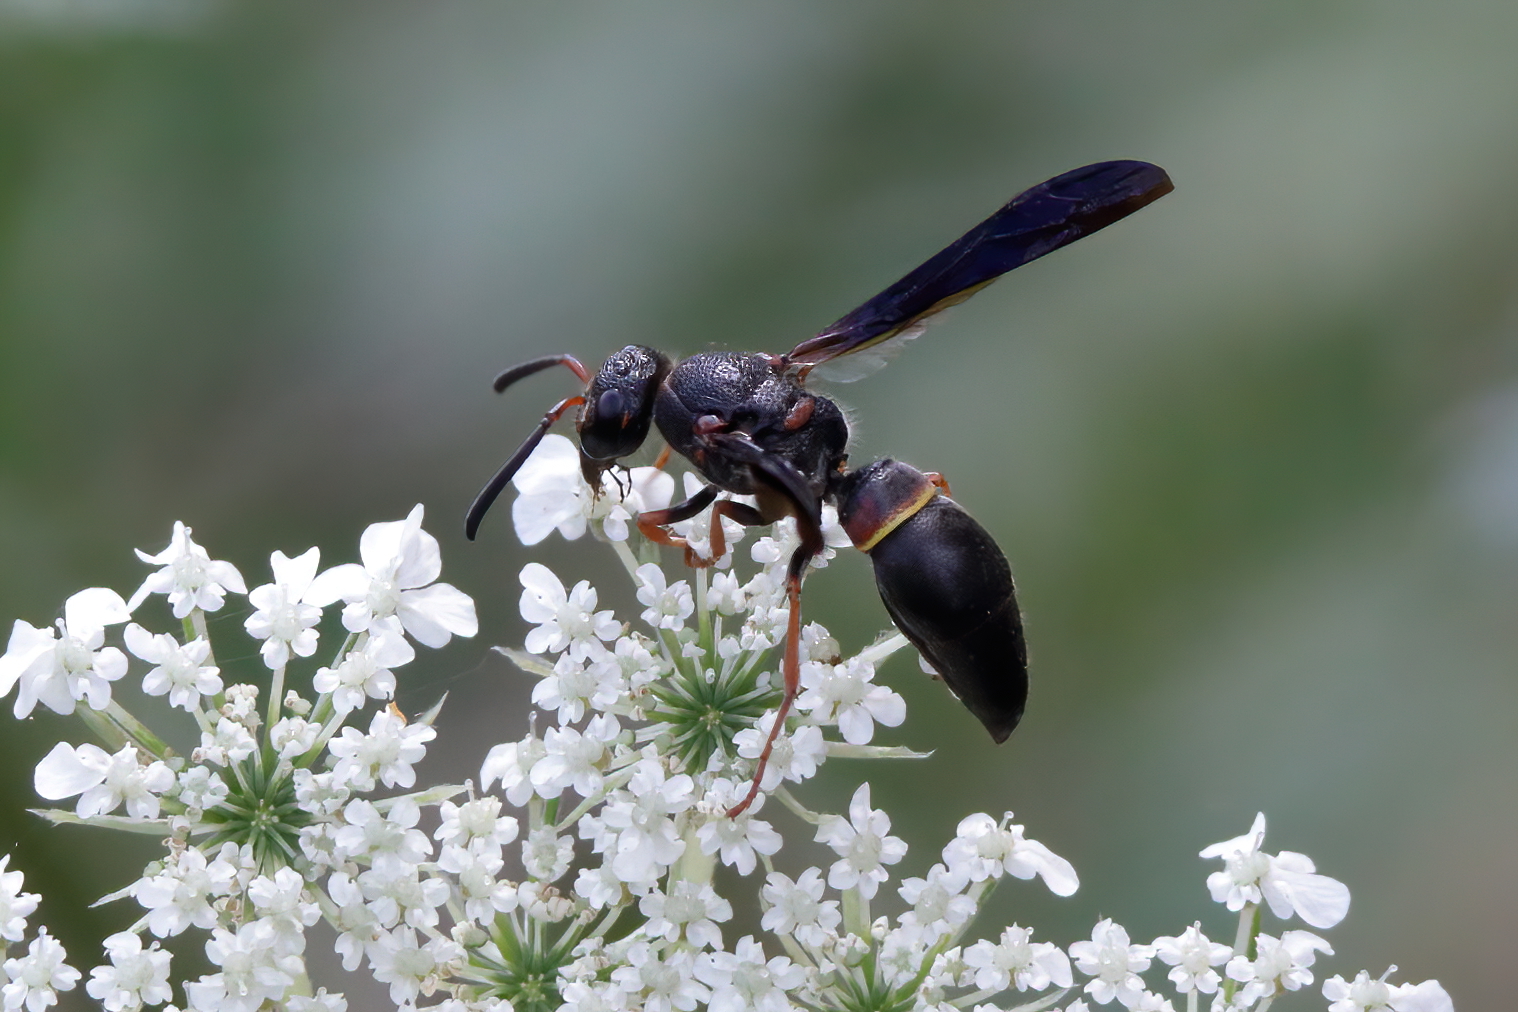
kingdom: Animalia
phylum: Arthropoda
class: Insecta
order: Hymenoptera
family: Vespidae
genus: Ancistrocerus
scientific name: Ancistrocerus unifasciatus
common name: One-banded mason wasp
